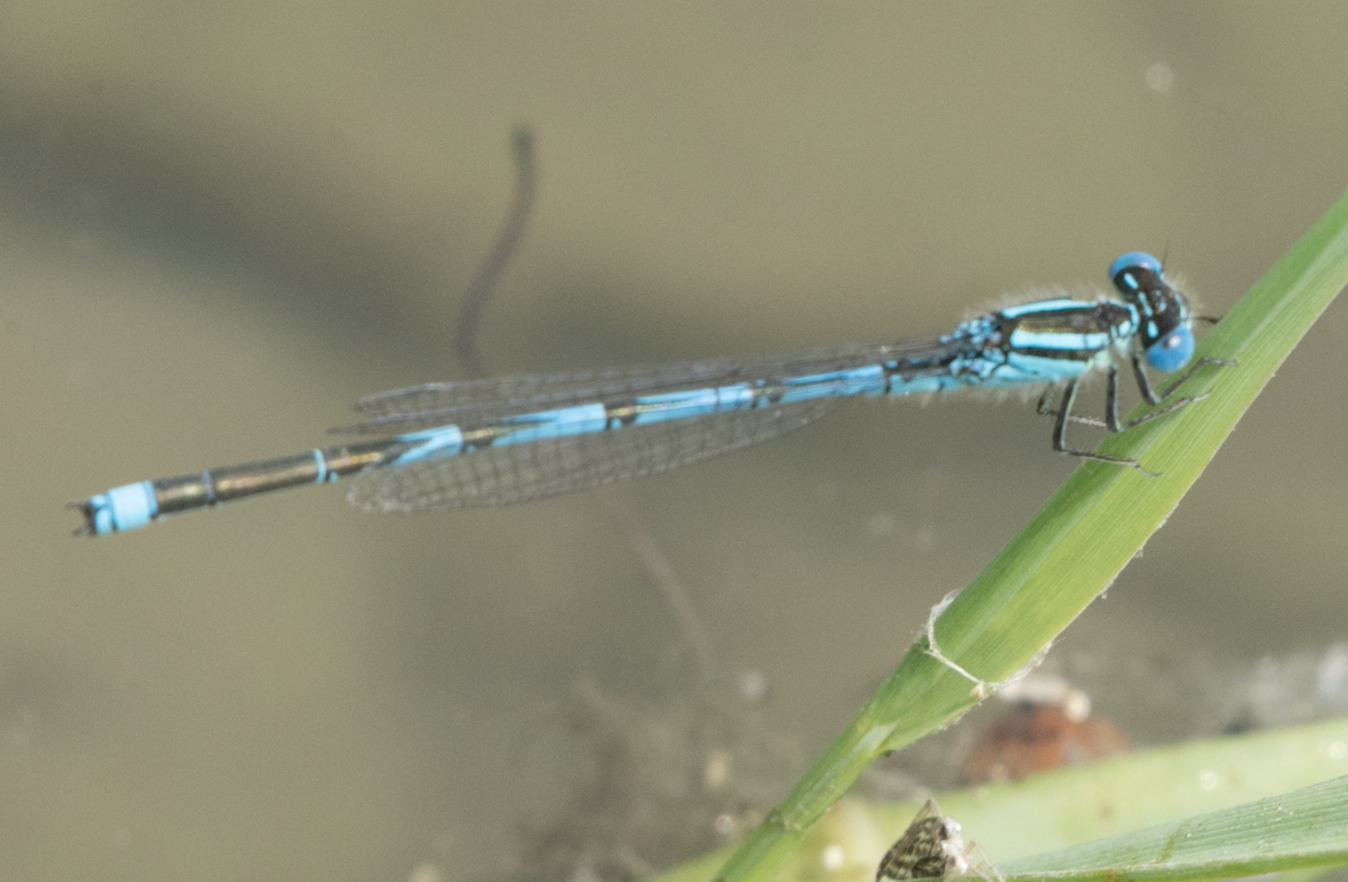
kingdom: Animalia
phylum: Arthropoda
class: Insecta
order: Odonata
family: Coenagrionidae
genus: Erythromma
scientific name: Erythromma lindenii
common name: Blue-eye
